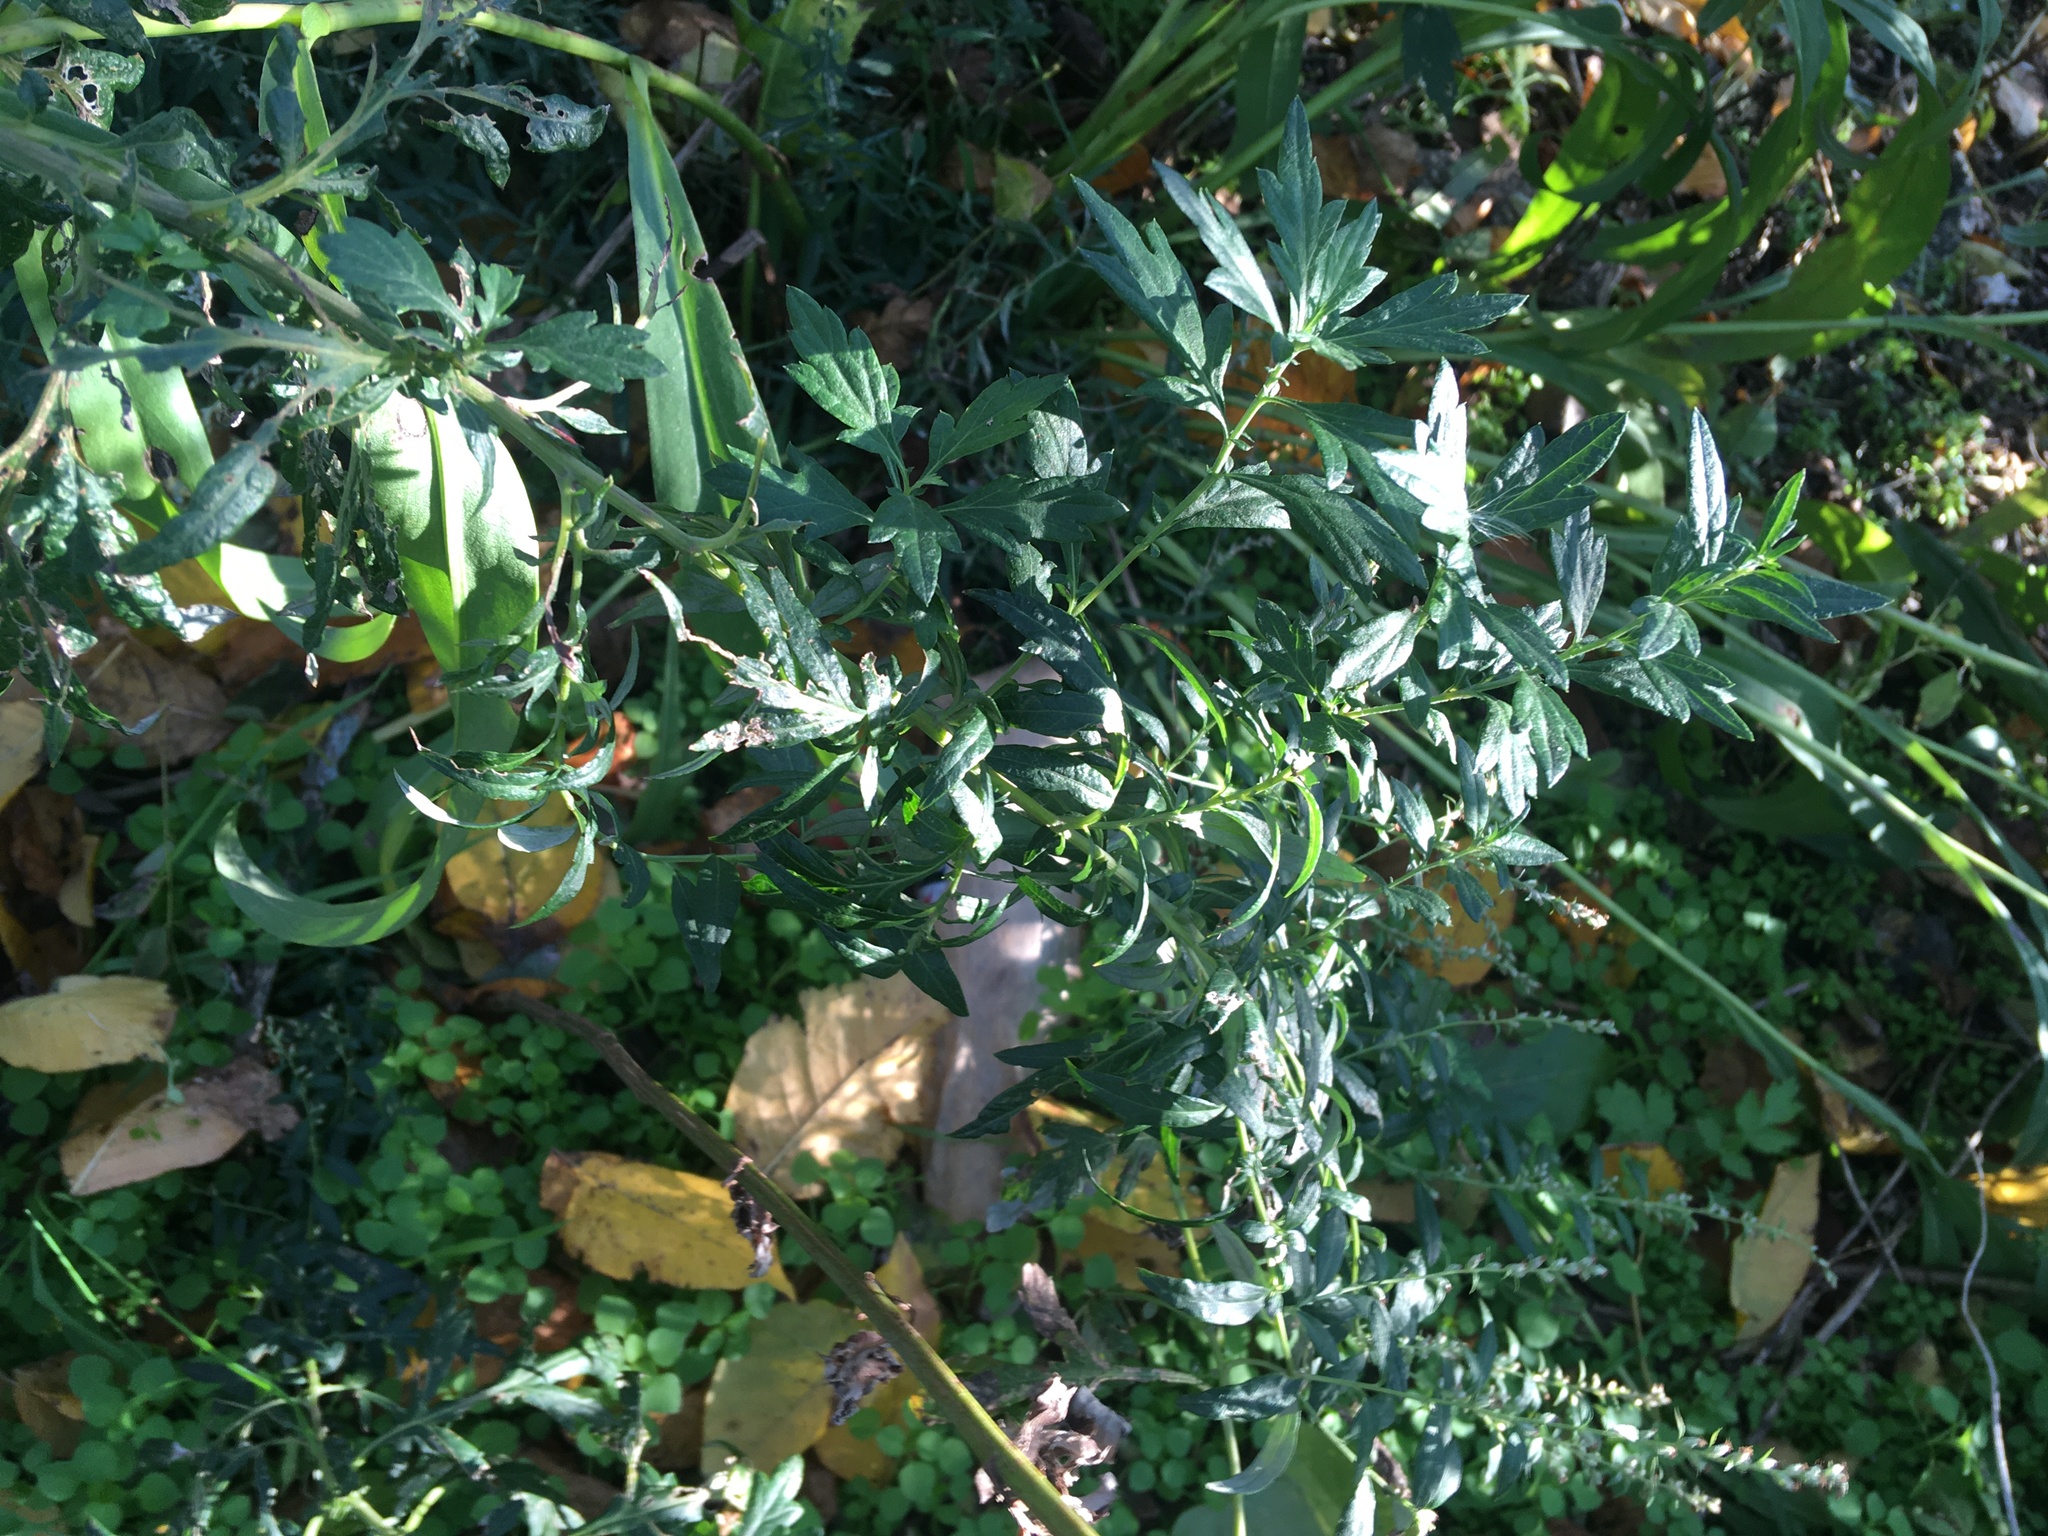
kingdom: Plantae
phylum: Tracheophyta
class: Magnoliopsida
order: Asterales
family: Asteraceae
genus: Artemisia
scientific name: Artemisia vulgaris
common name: Mugwort
